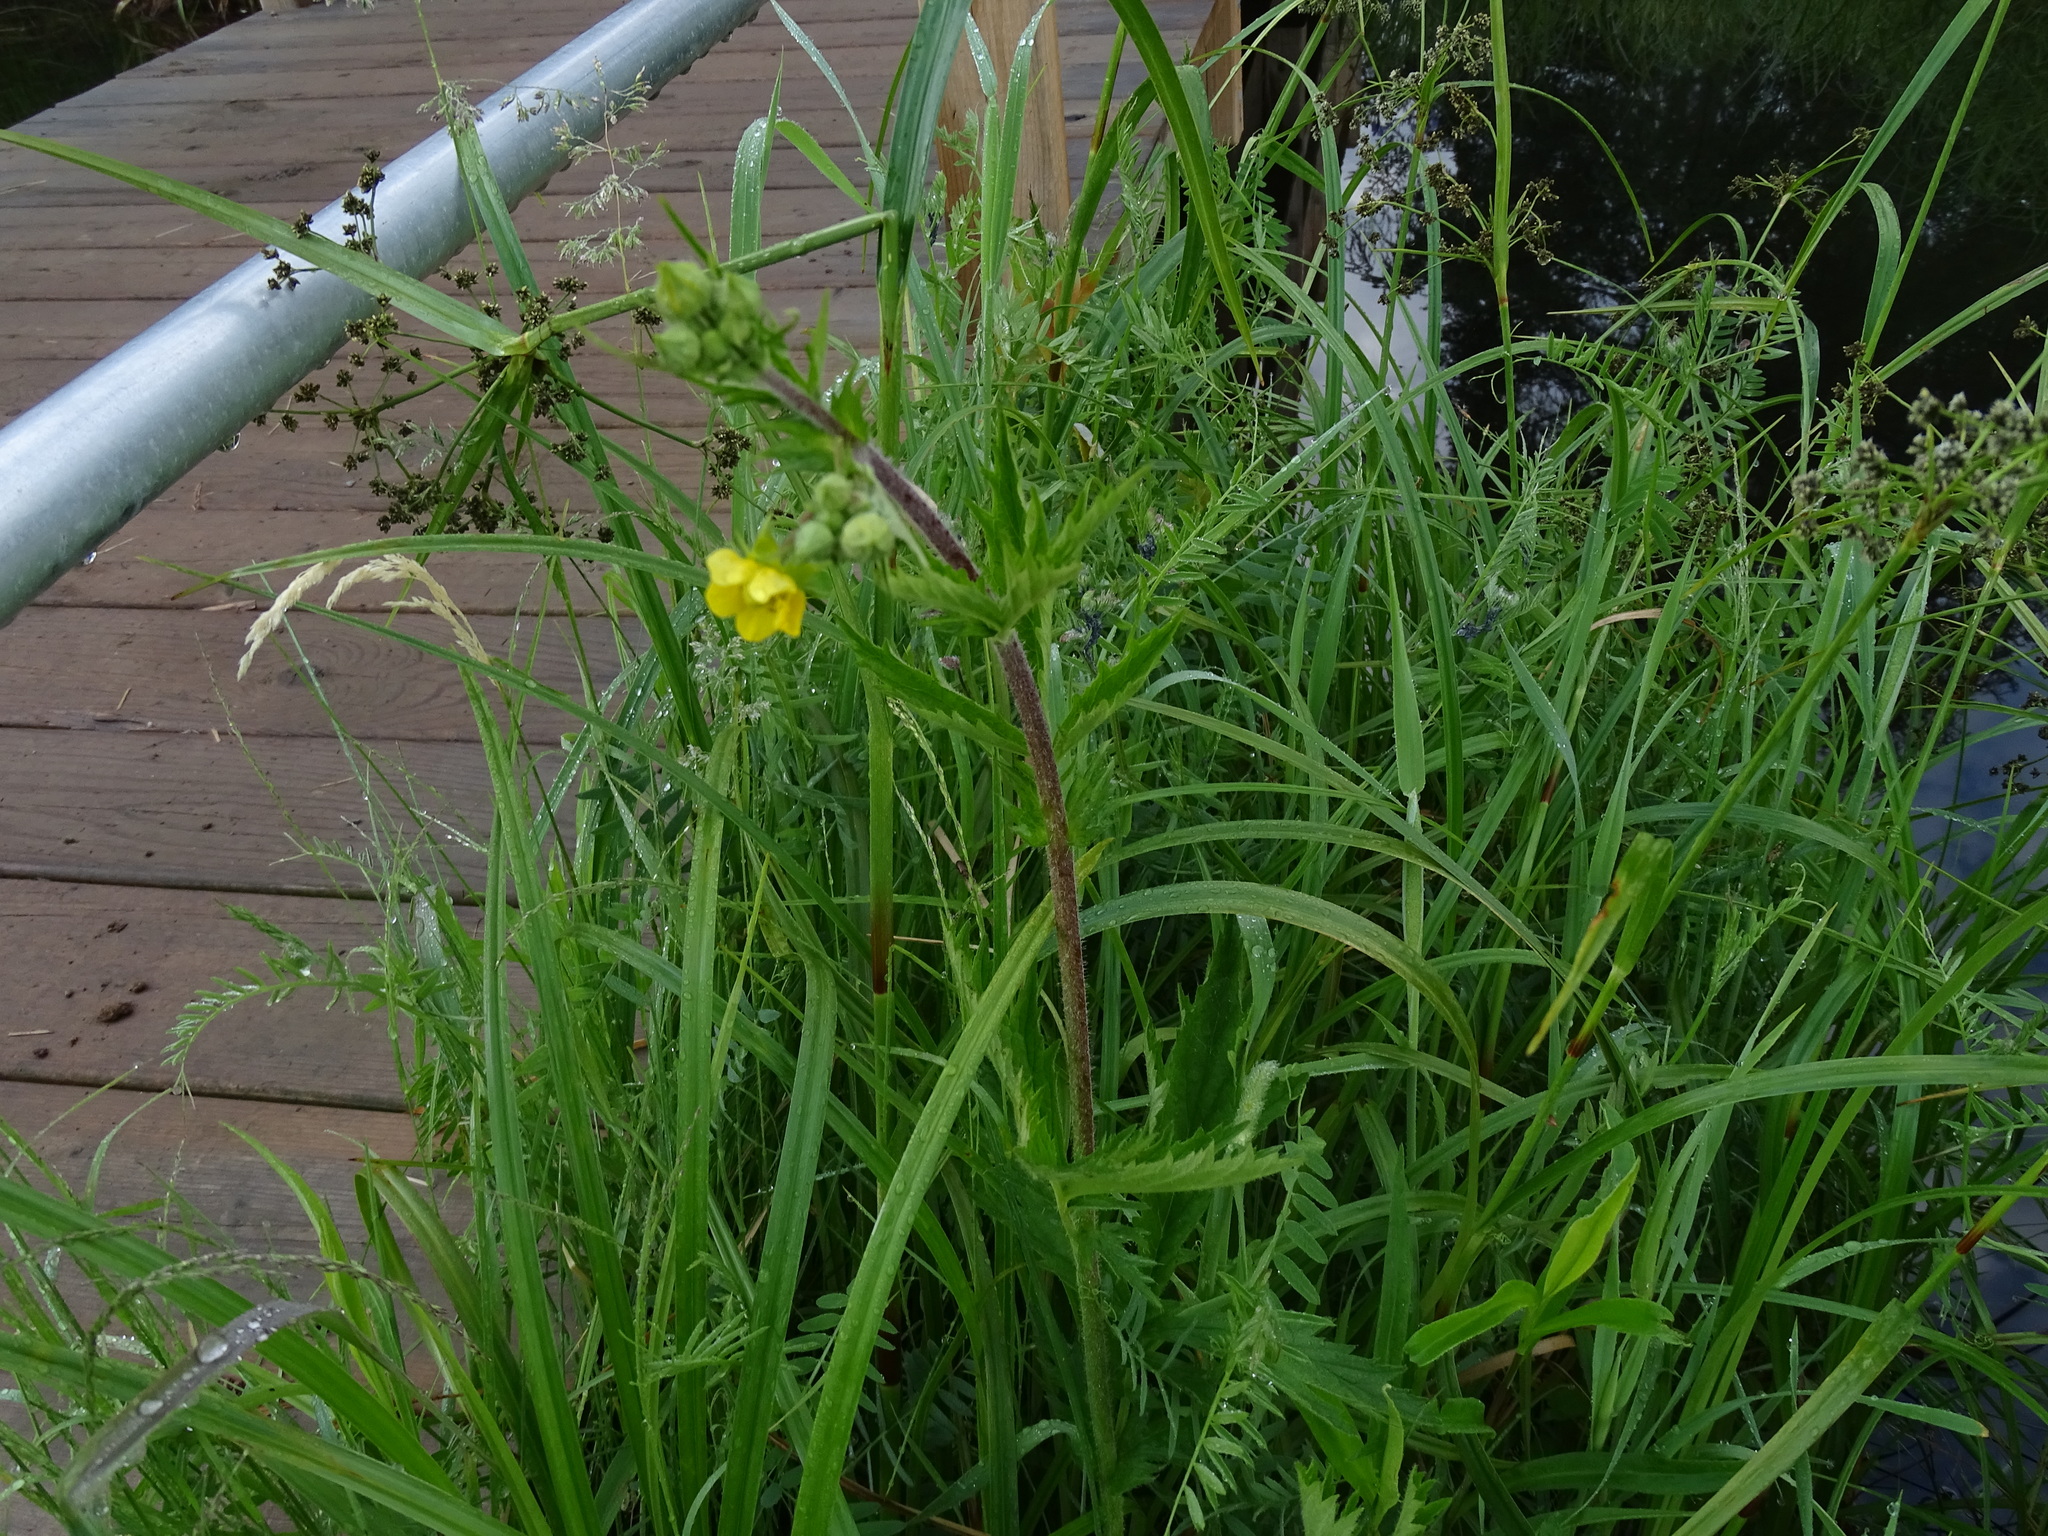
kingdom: Plantae
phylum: Tracheophyta
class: Magnoliopsida
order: Rosales
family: Rosaceae
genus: Geum
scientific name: Geum aleppicum
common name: Yellow avens
